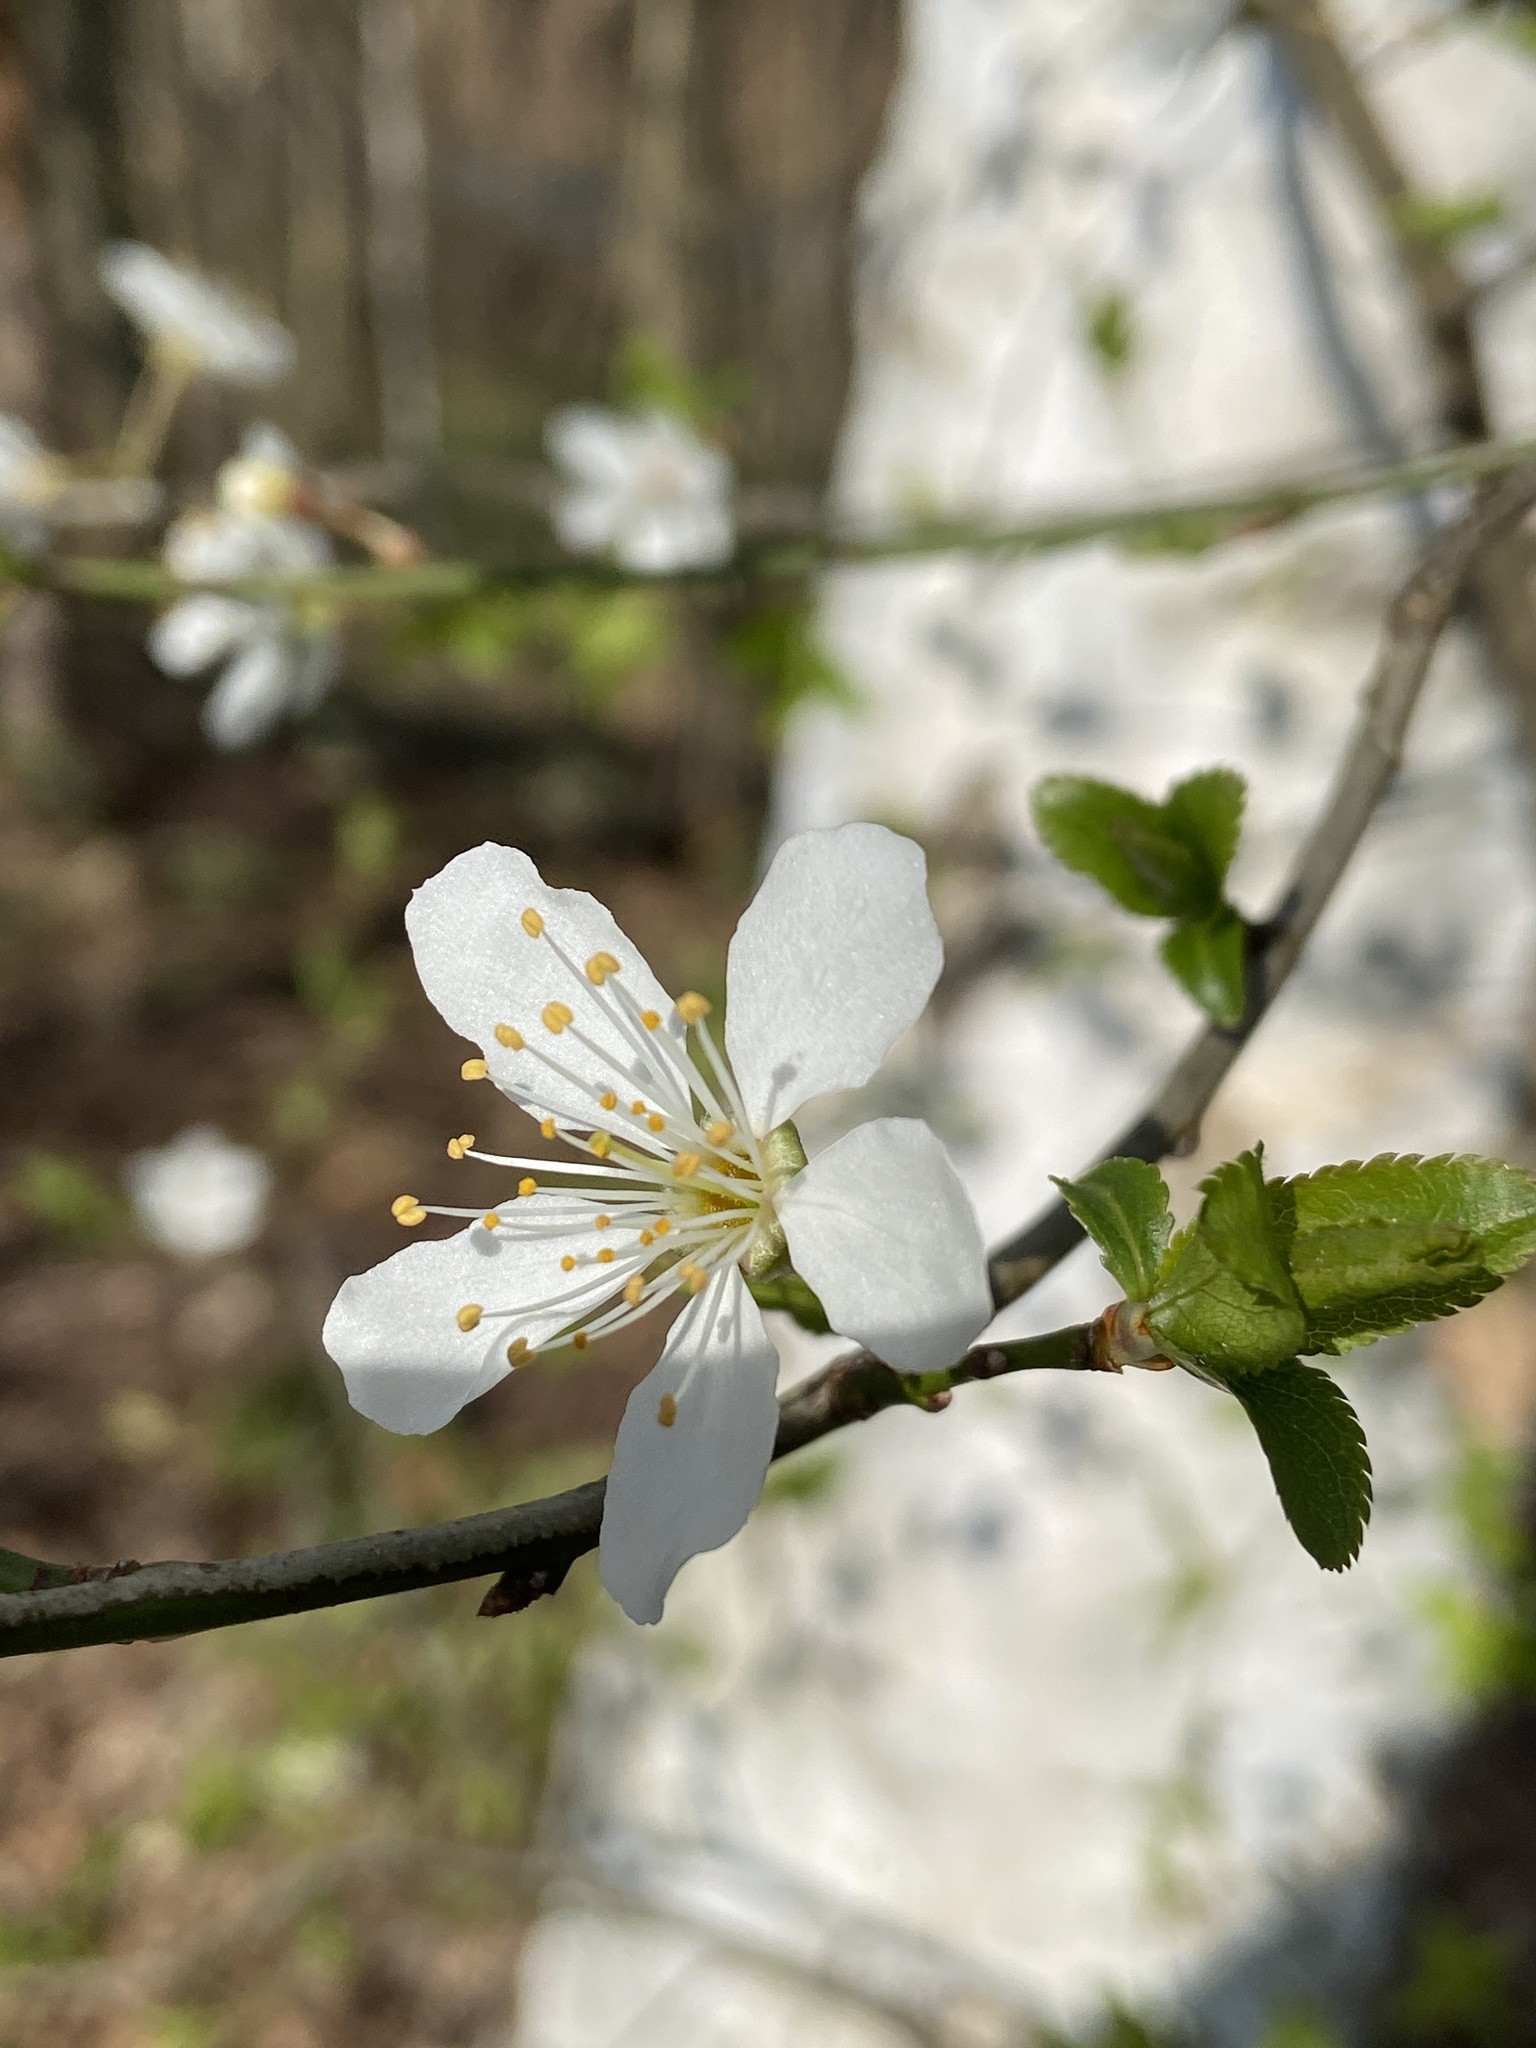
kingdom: Plantae
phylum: Tracheophyta
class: Magnoliopsida
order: Rosales
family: Rosaceae
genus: Prunus
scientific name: Prunus cerasifera
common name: Cherry plum
